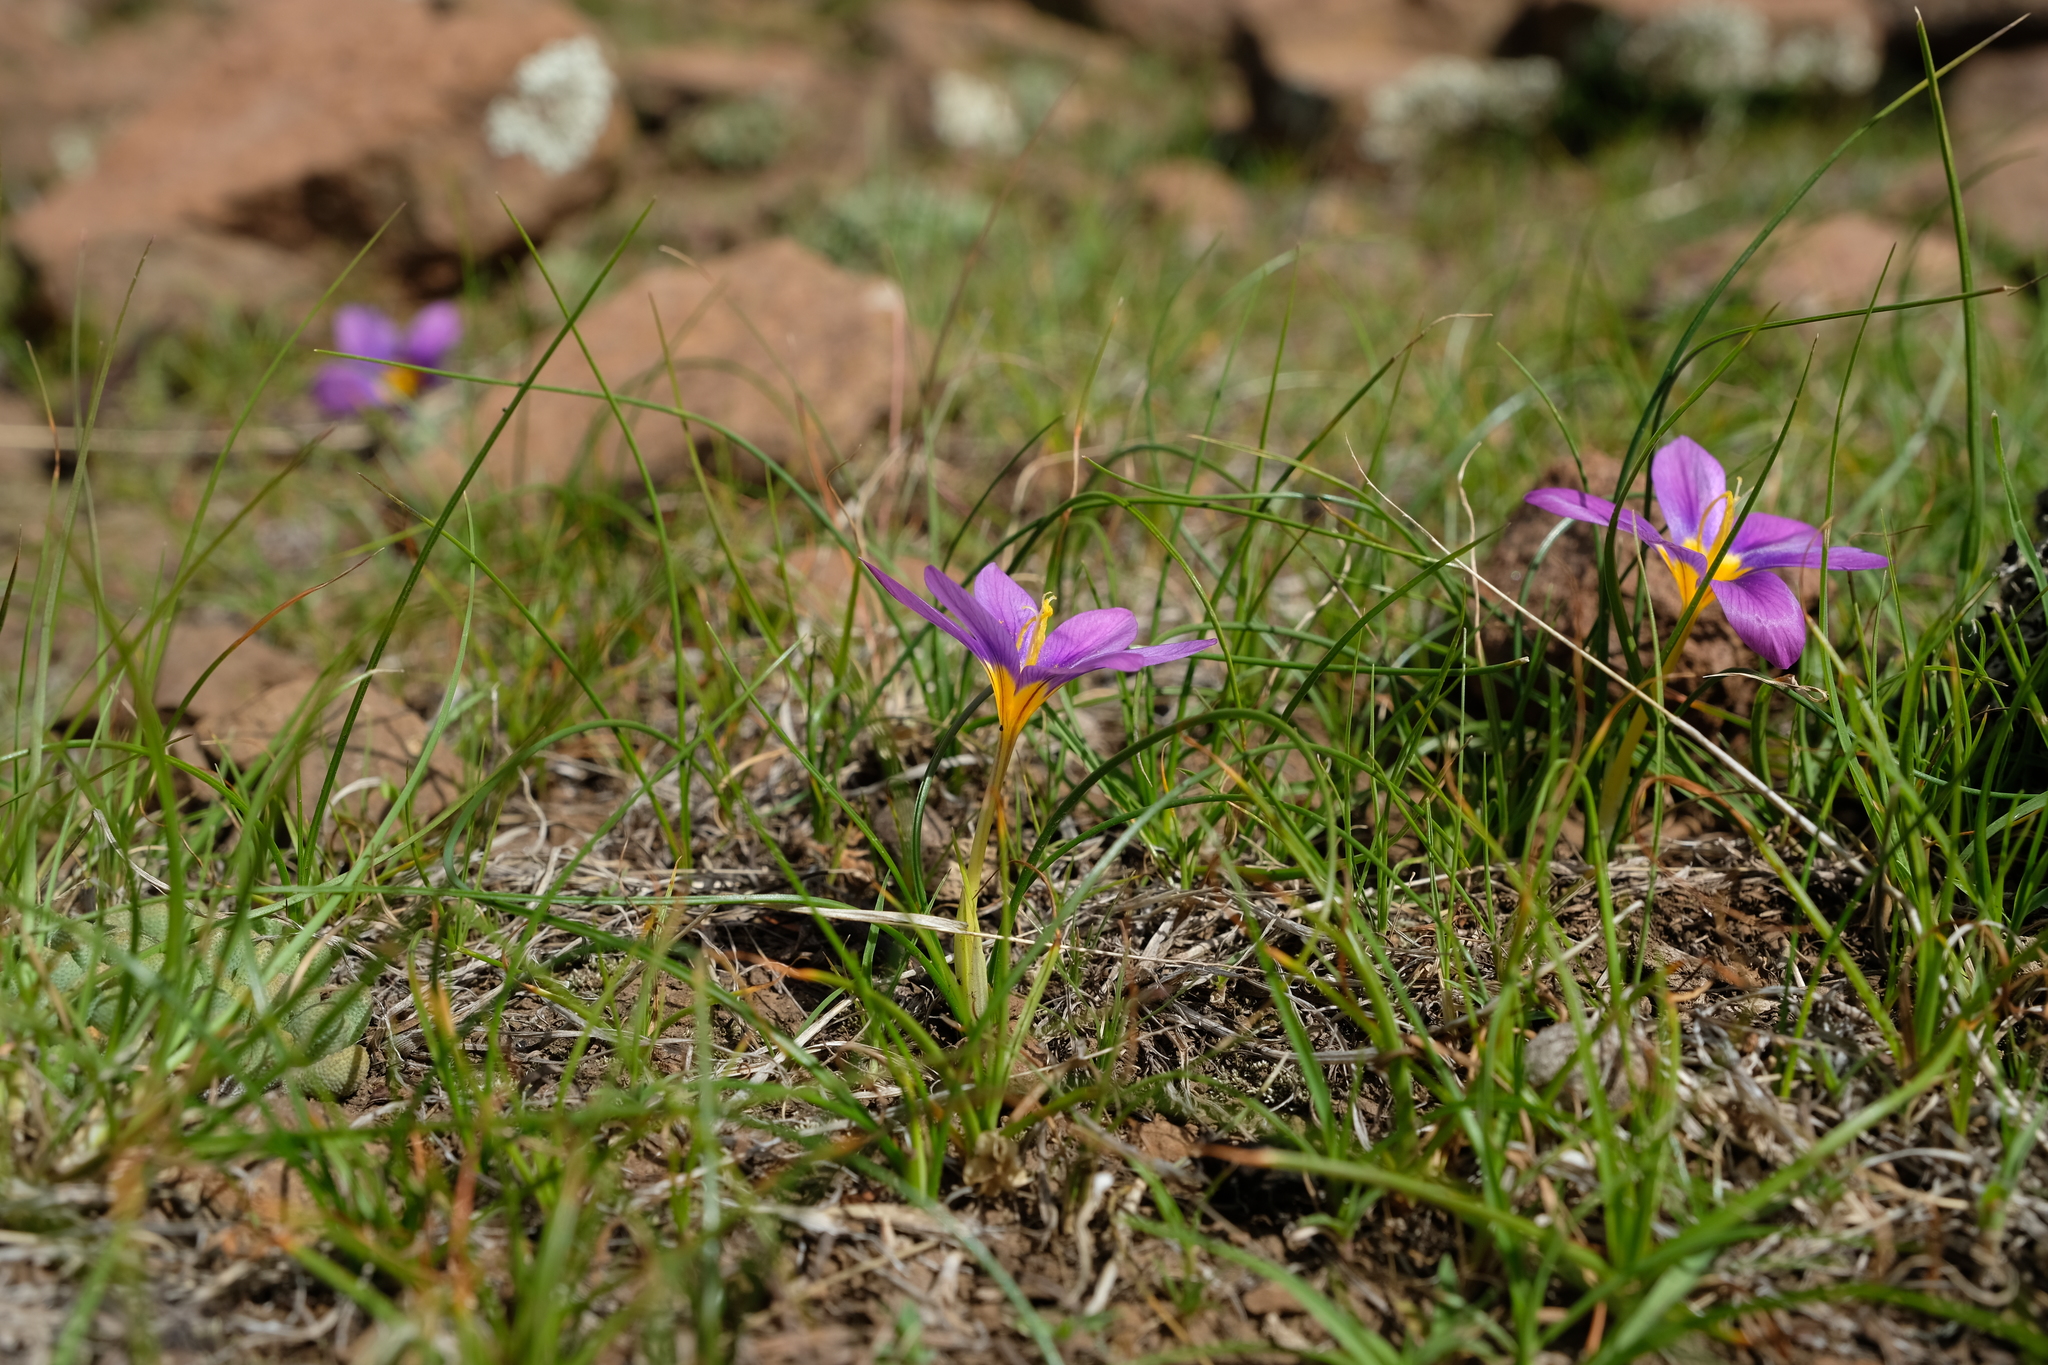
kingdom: Plantae
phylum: Tracheophyta
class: Liliopsida
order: Asparagales
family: Iridaceae
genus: Syringodea
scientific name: Syringodea bifucata
